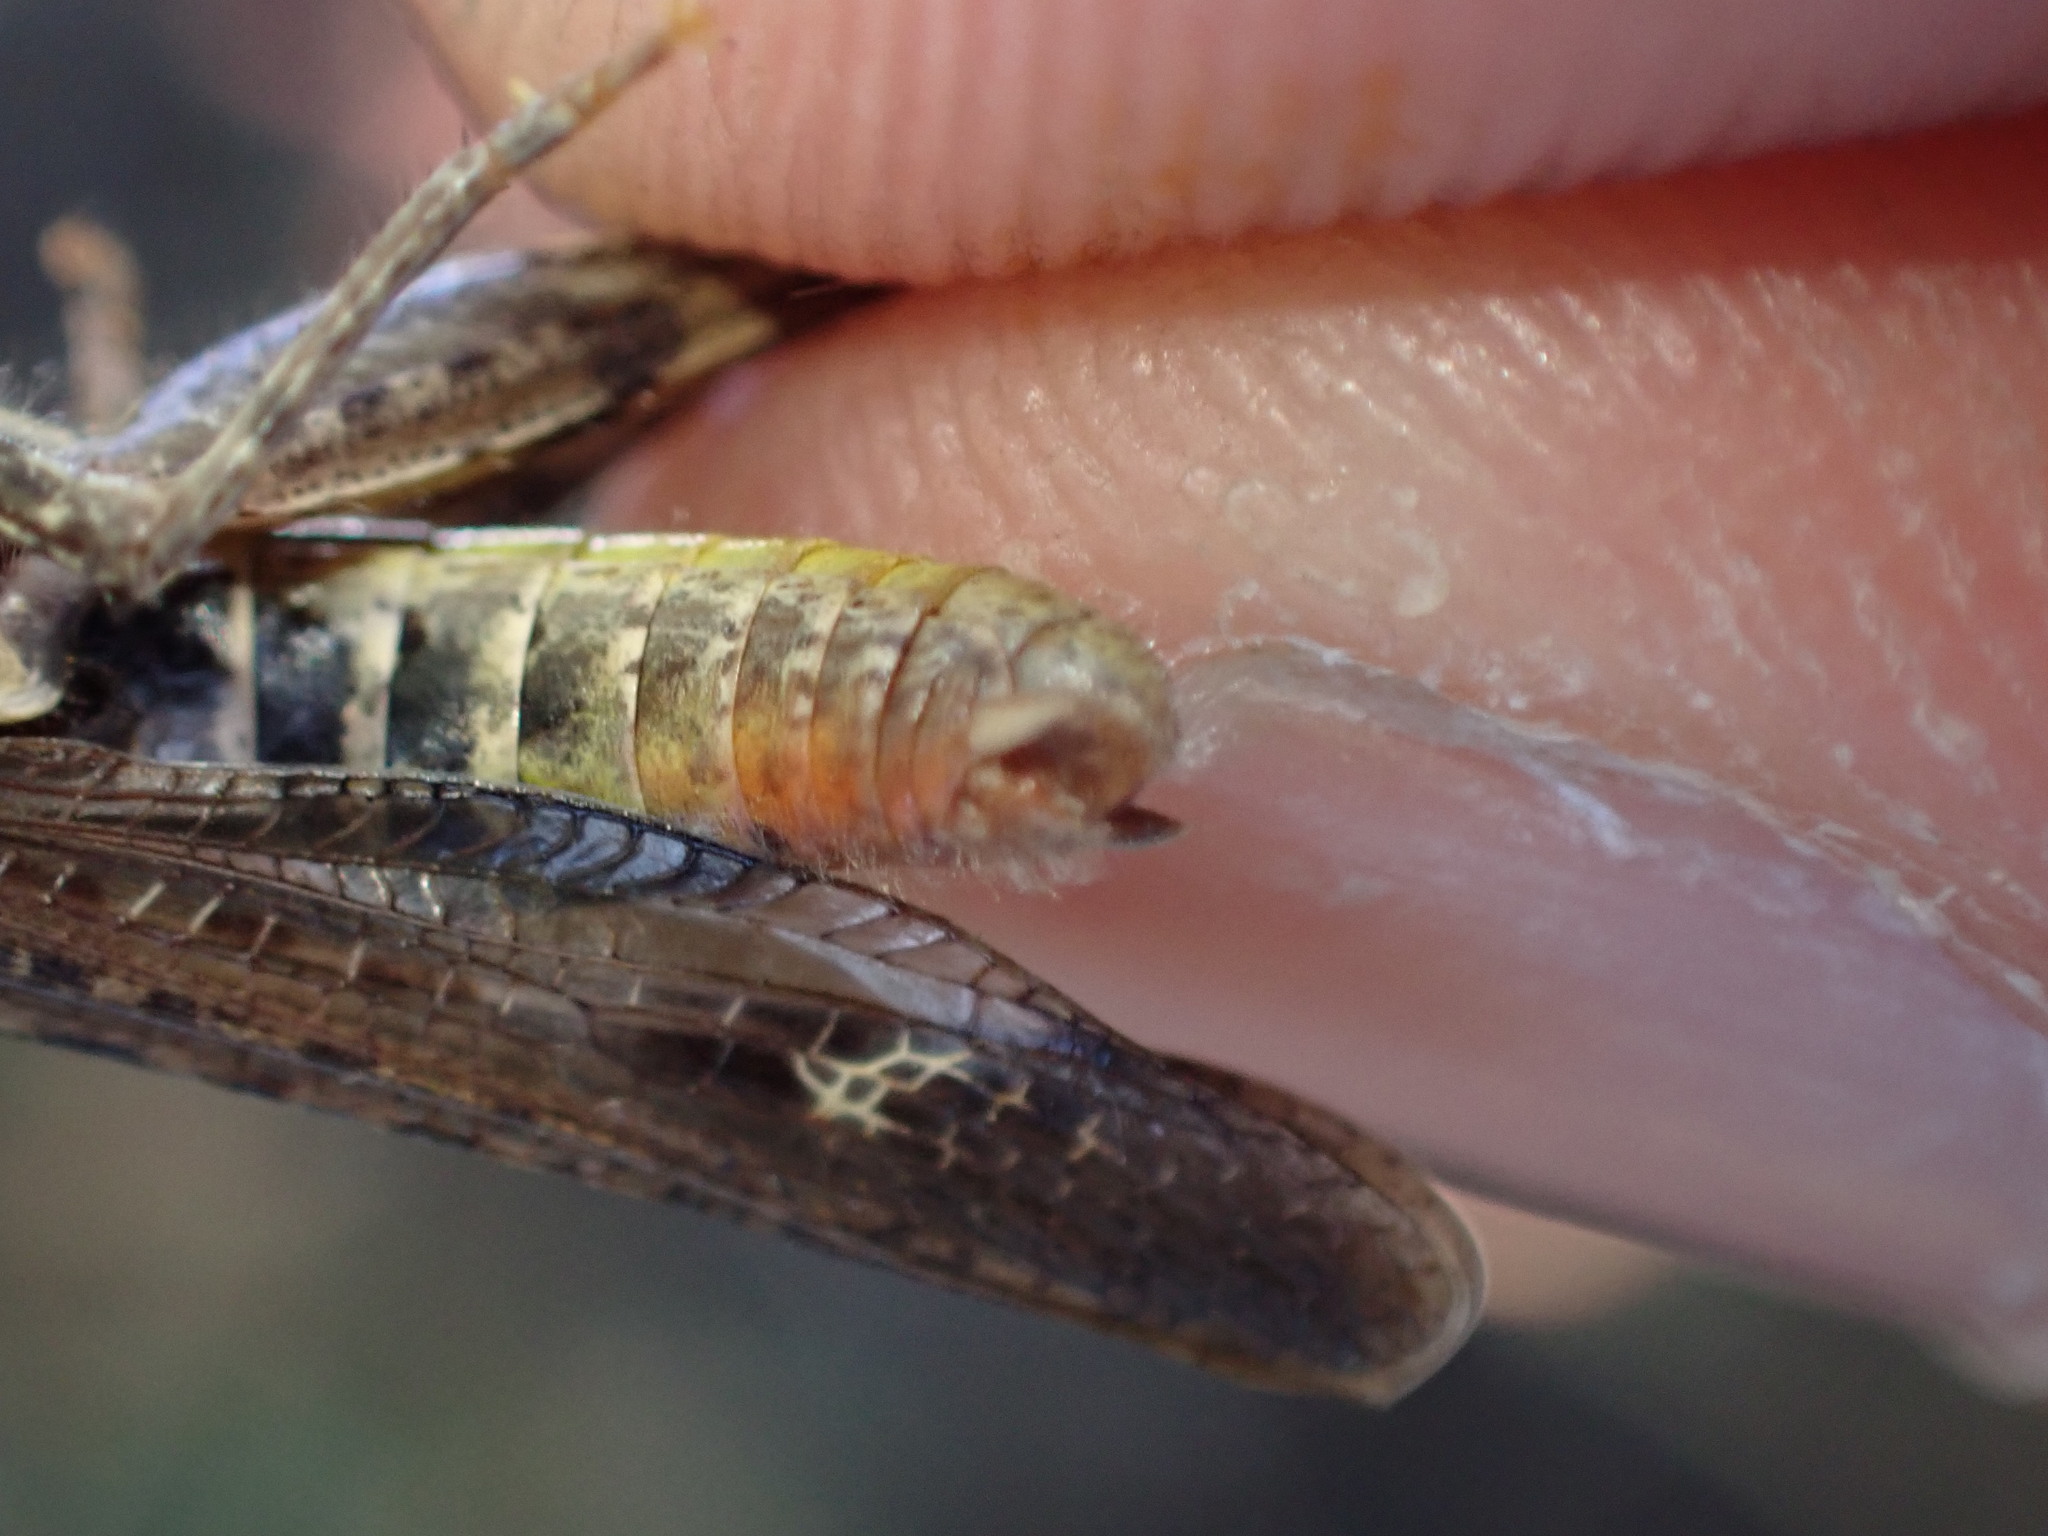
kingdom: Animalia
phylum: Arthropoda
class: Insecta
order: Orthoptera
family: Acrididae
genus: Chorthippus
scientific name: Chorthippus biguttulus
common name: Bow-winged grasshopper
